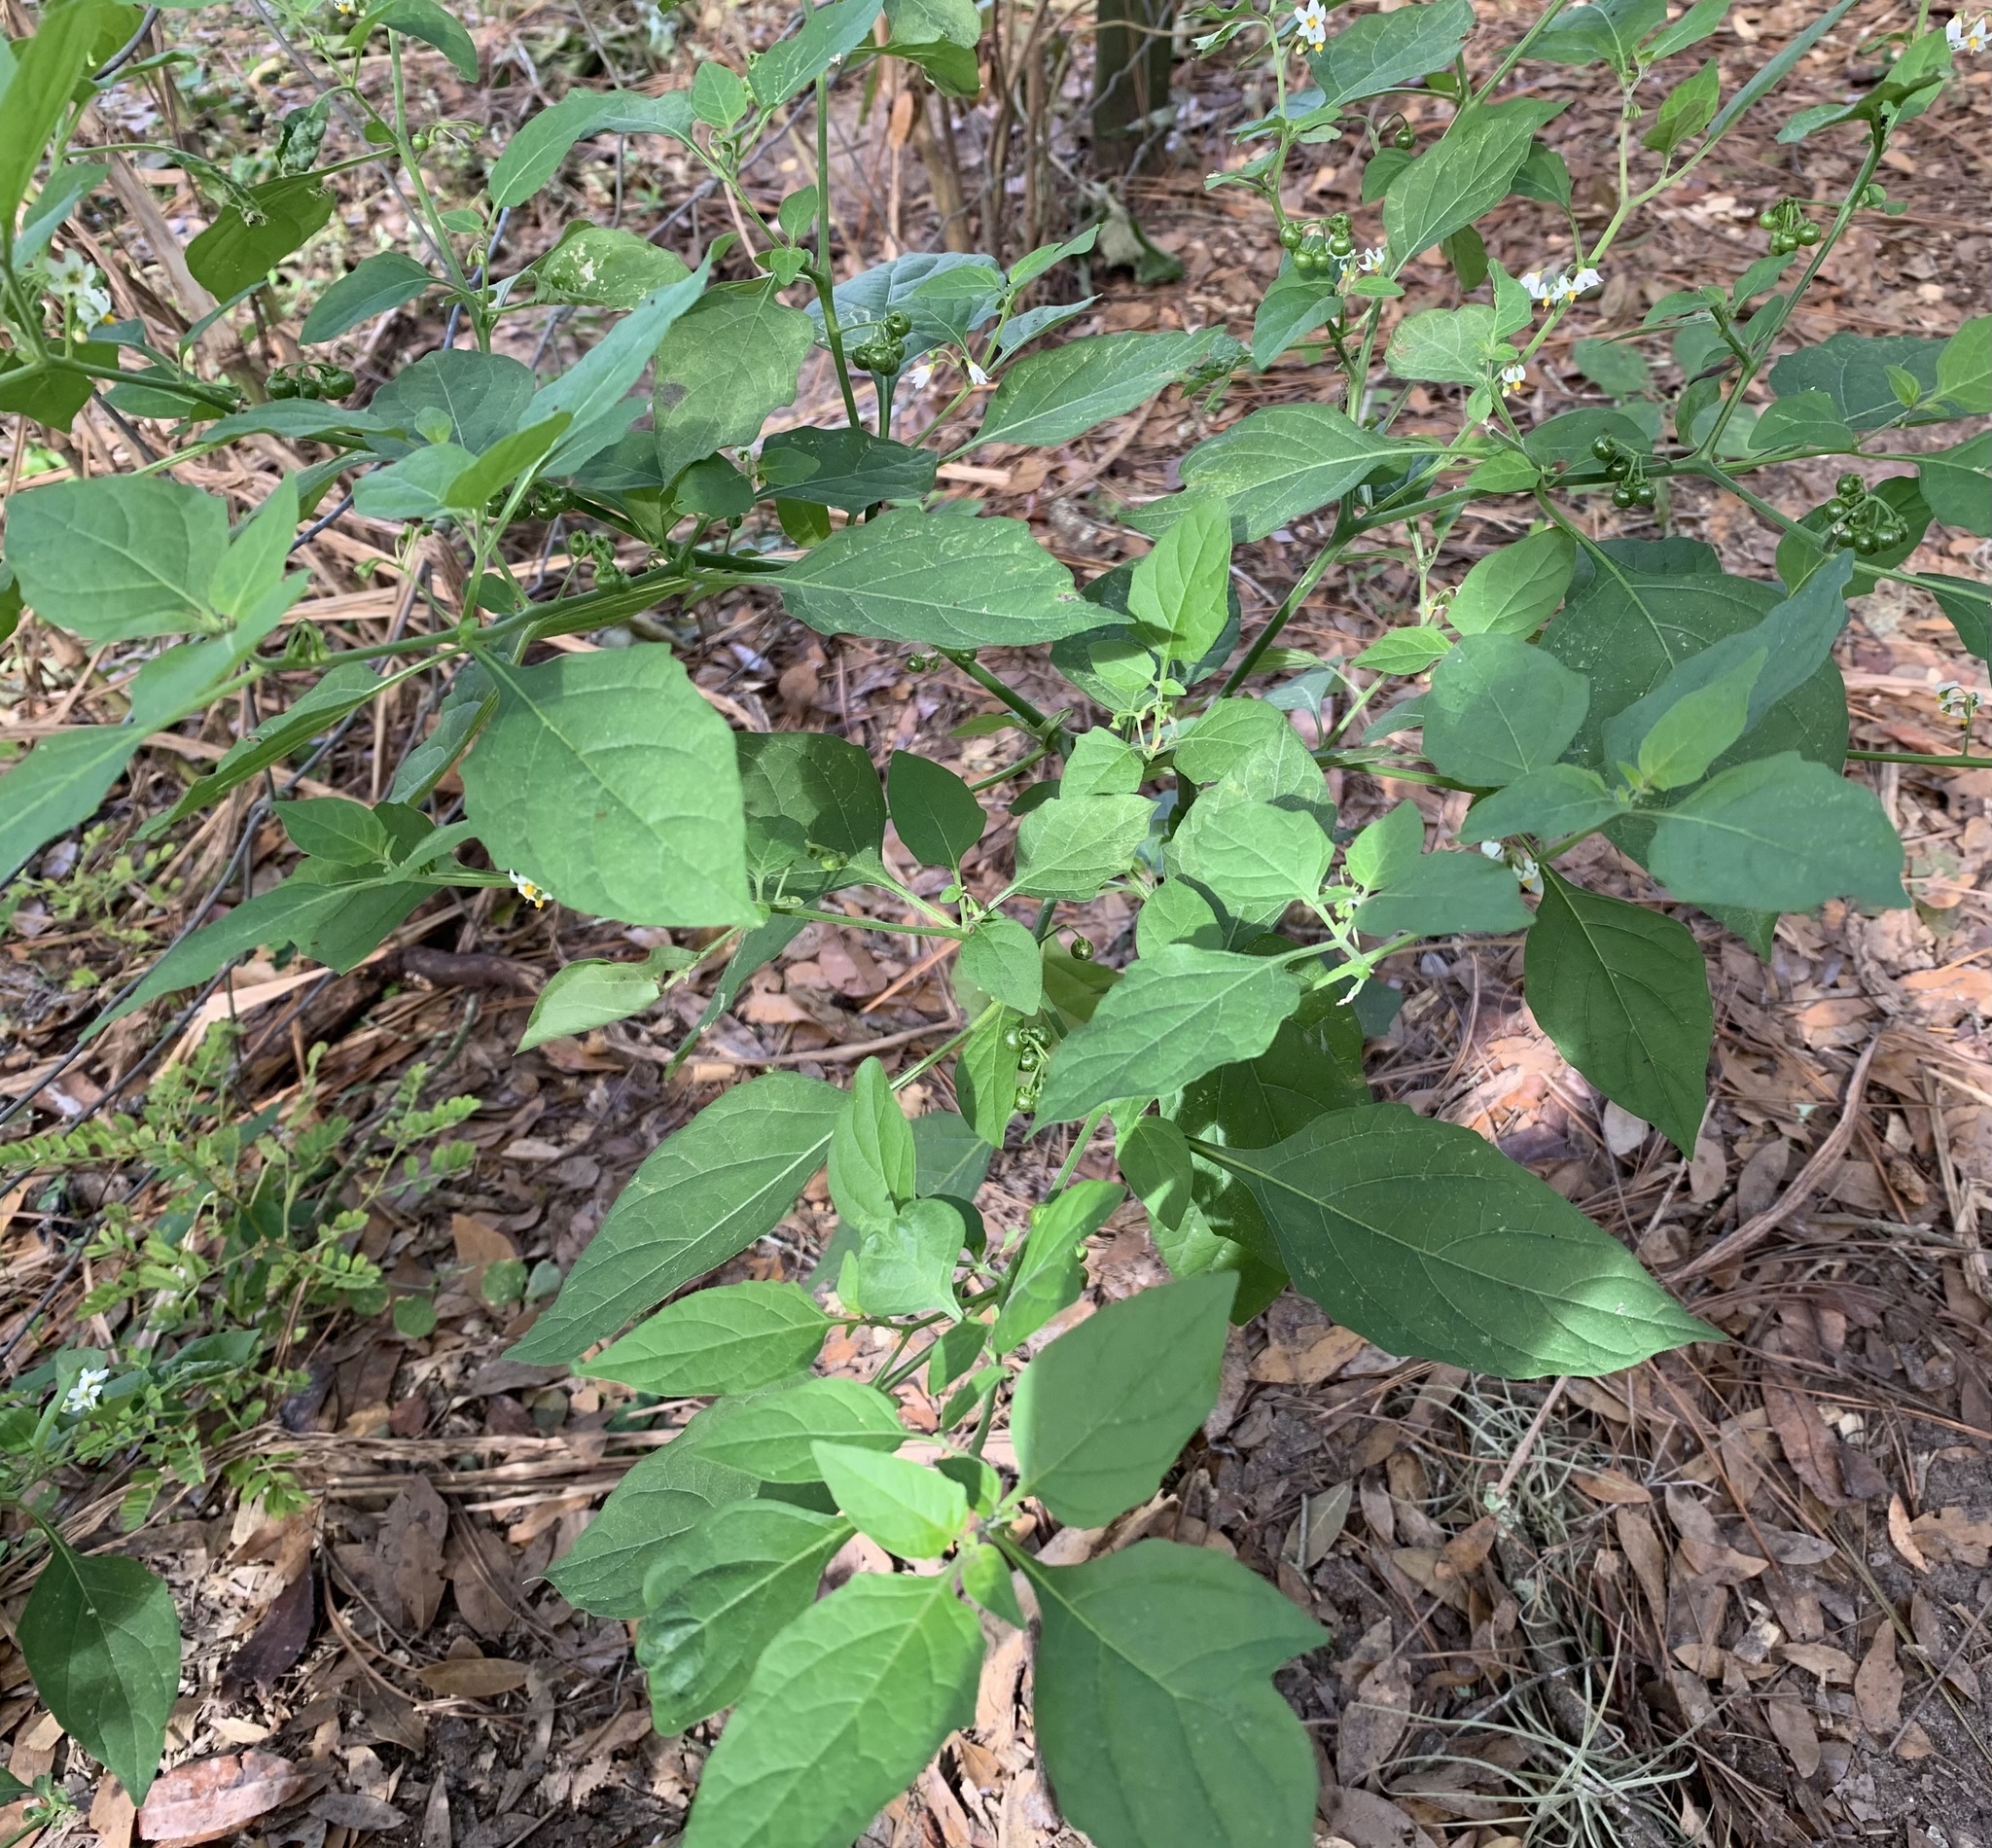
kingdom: Plantae
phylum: Tracheophyta
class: Magnoliopsida
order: Solanales
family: Solanaceae
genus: Solanum
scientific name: Solanum americanum
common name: American black nightshade
